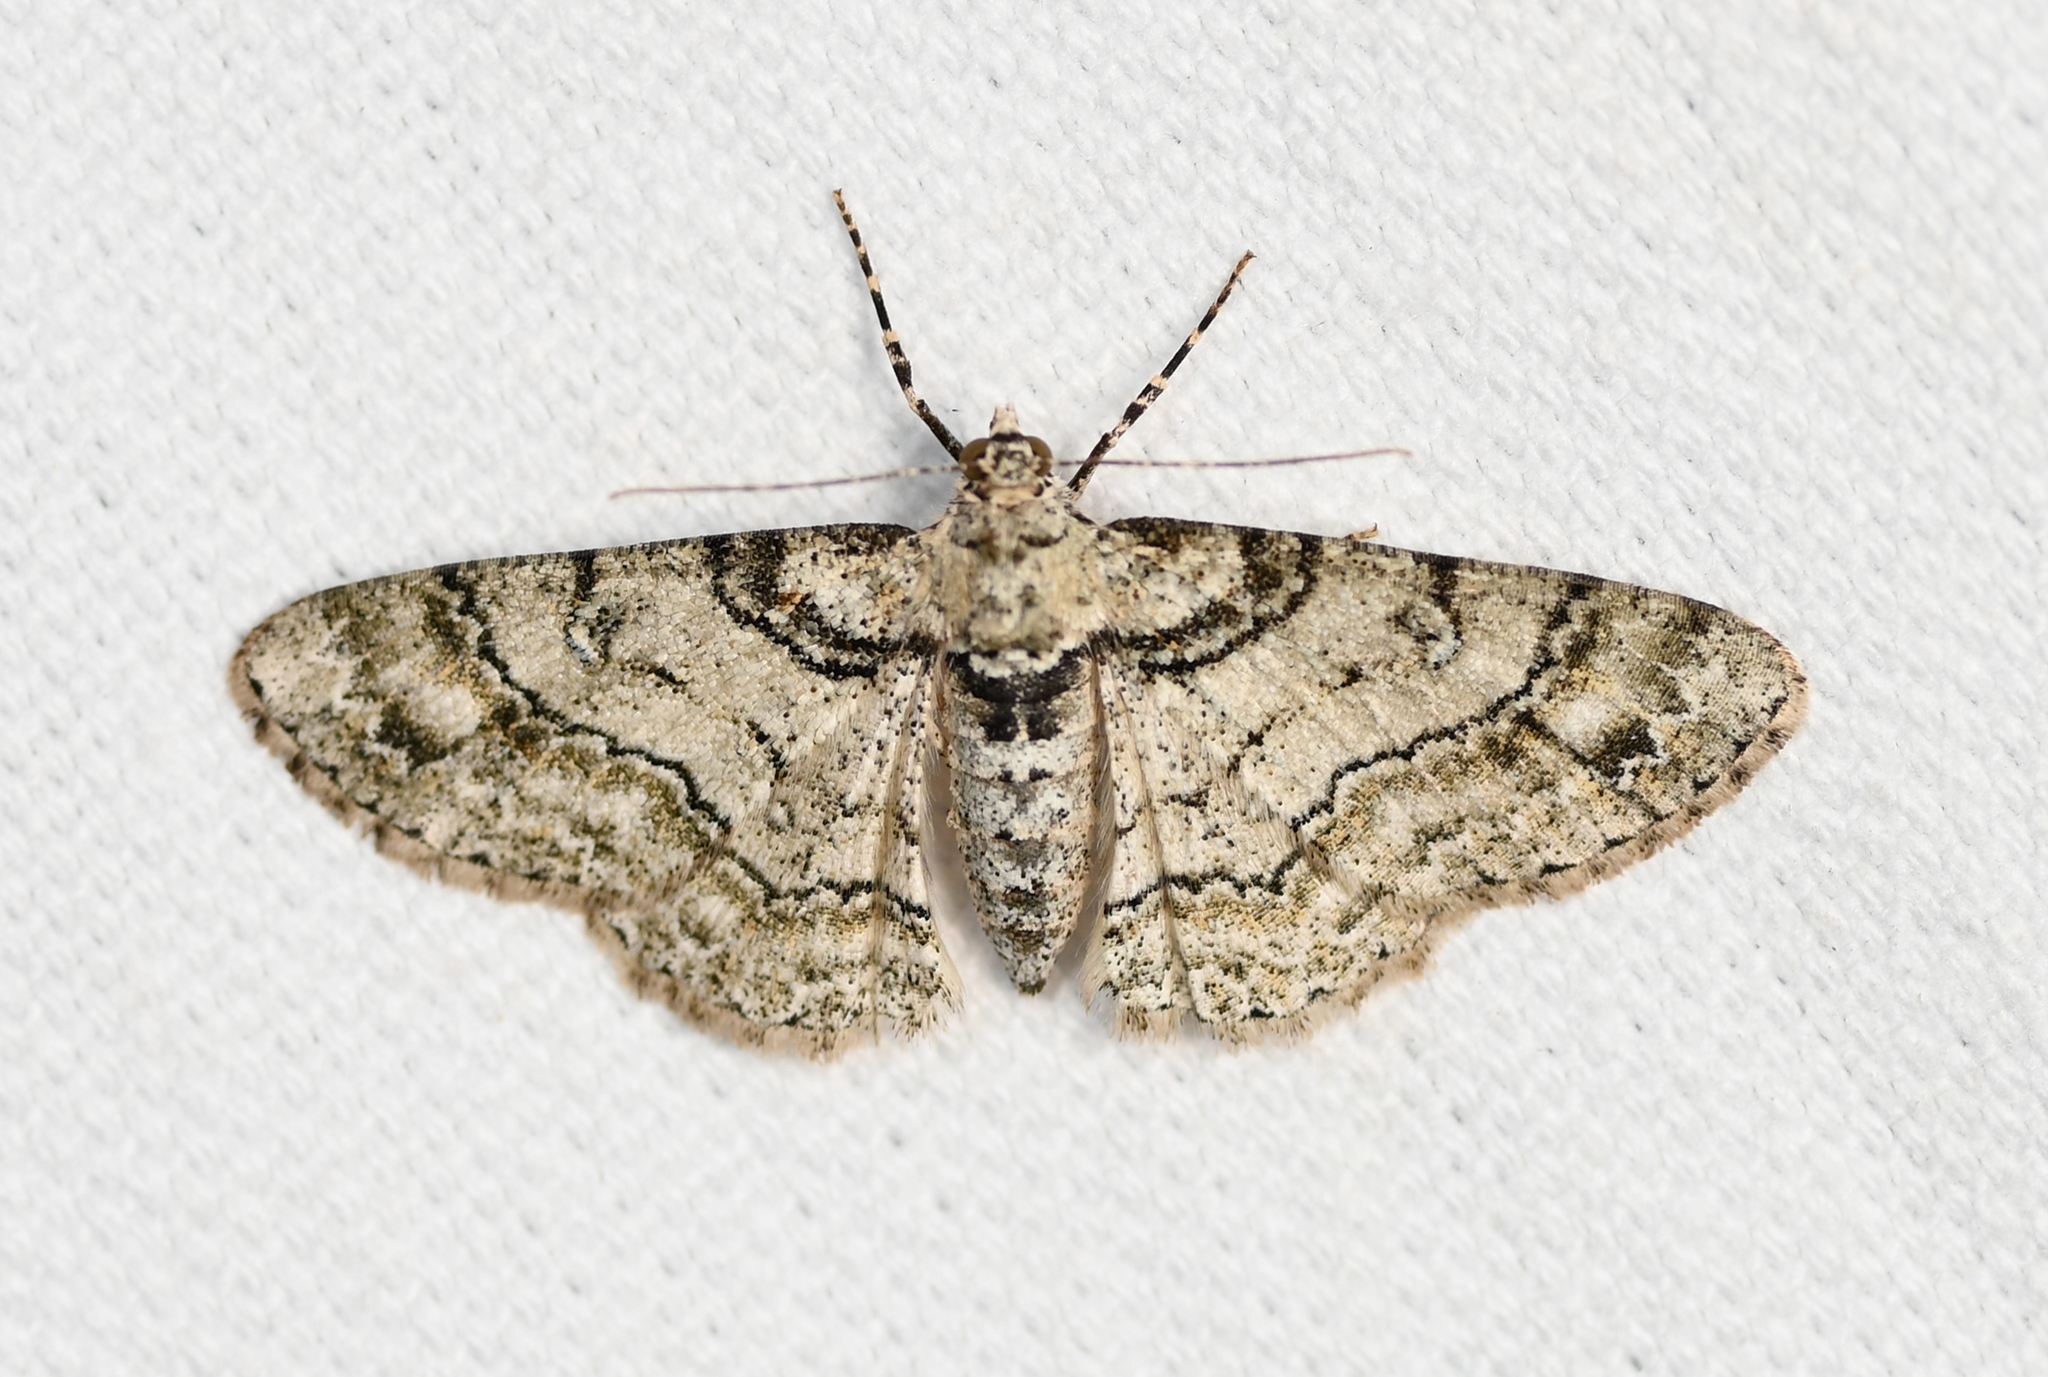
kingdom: Animalia
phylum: Arthropoda
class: Insecta
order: Lepidoptera
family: Geometridae
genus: Cleora
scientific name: Cleora sublunaria
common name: Double-lined gray
